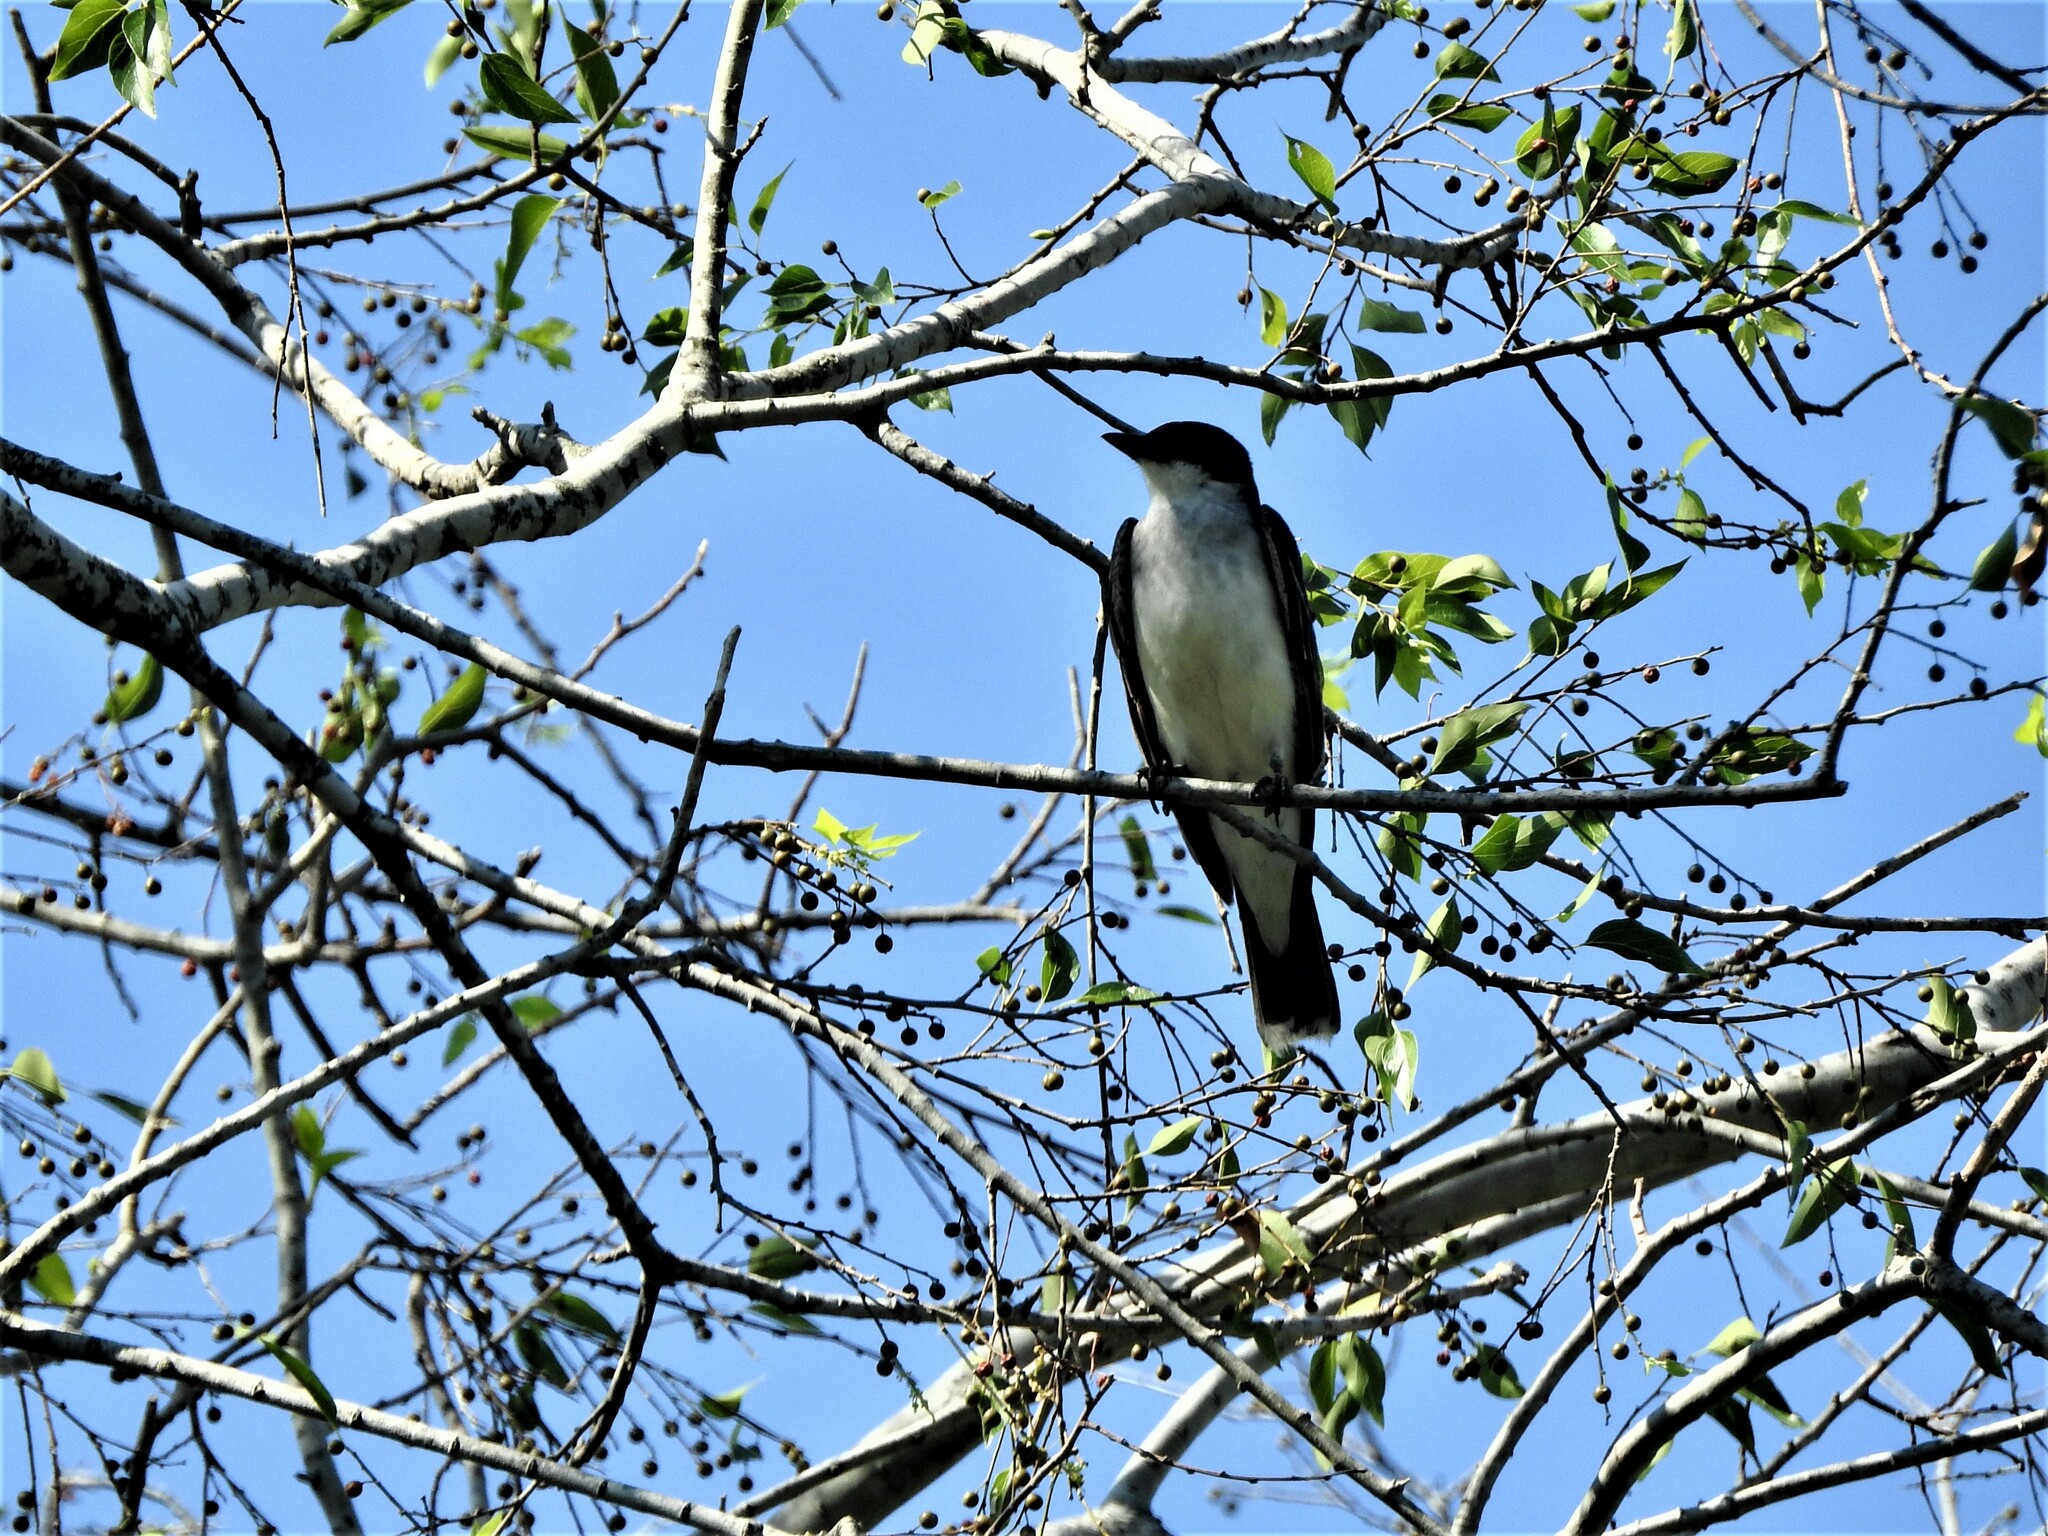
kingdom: Animalia
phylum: Chordata
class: Aves
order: Passeriformes
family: Tyrannidae
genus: Tyrannus
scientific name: Tyrannus tyrannus
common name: Eastern kingbird
